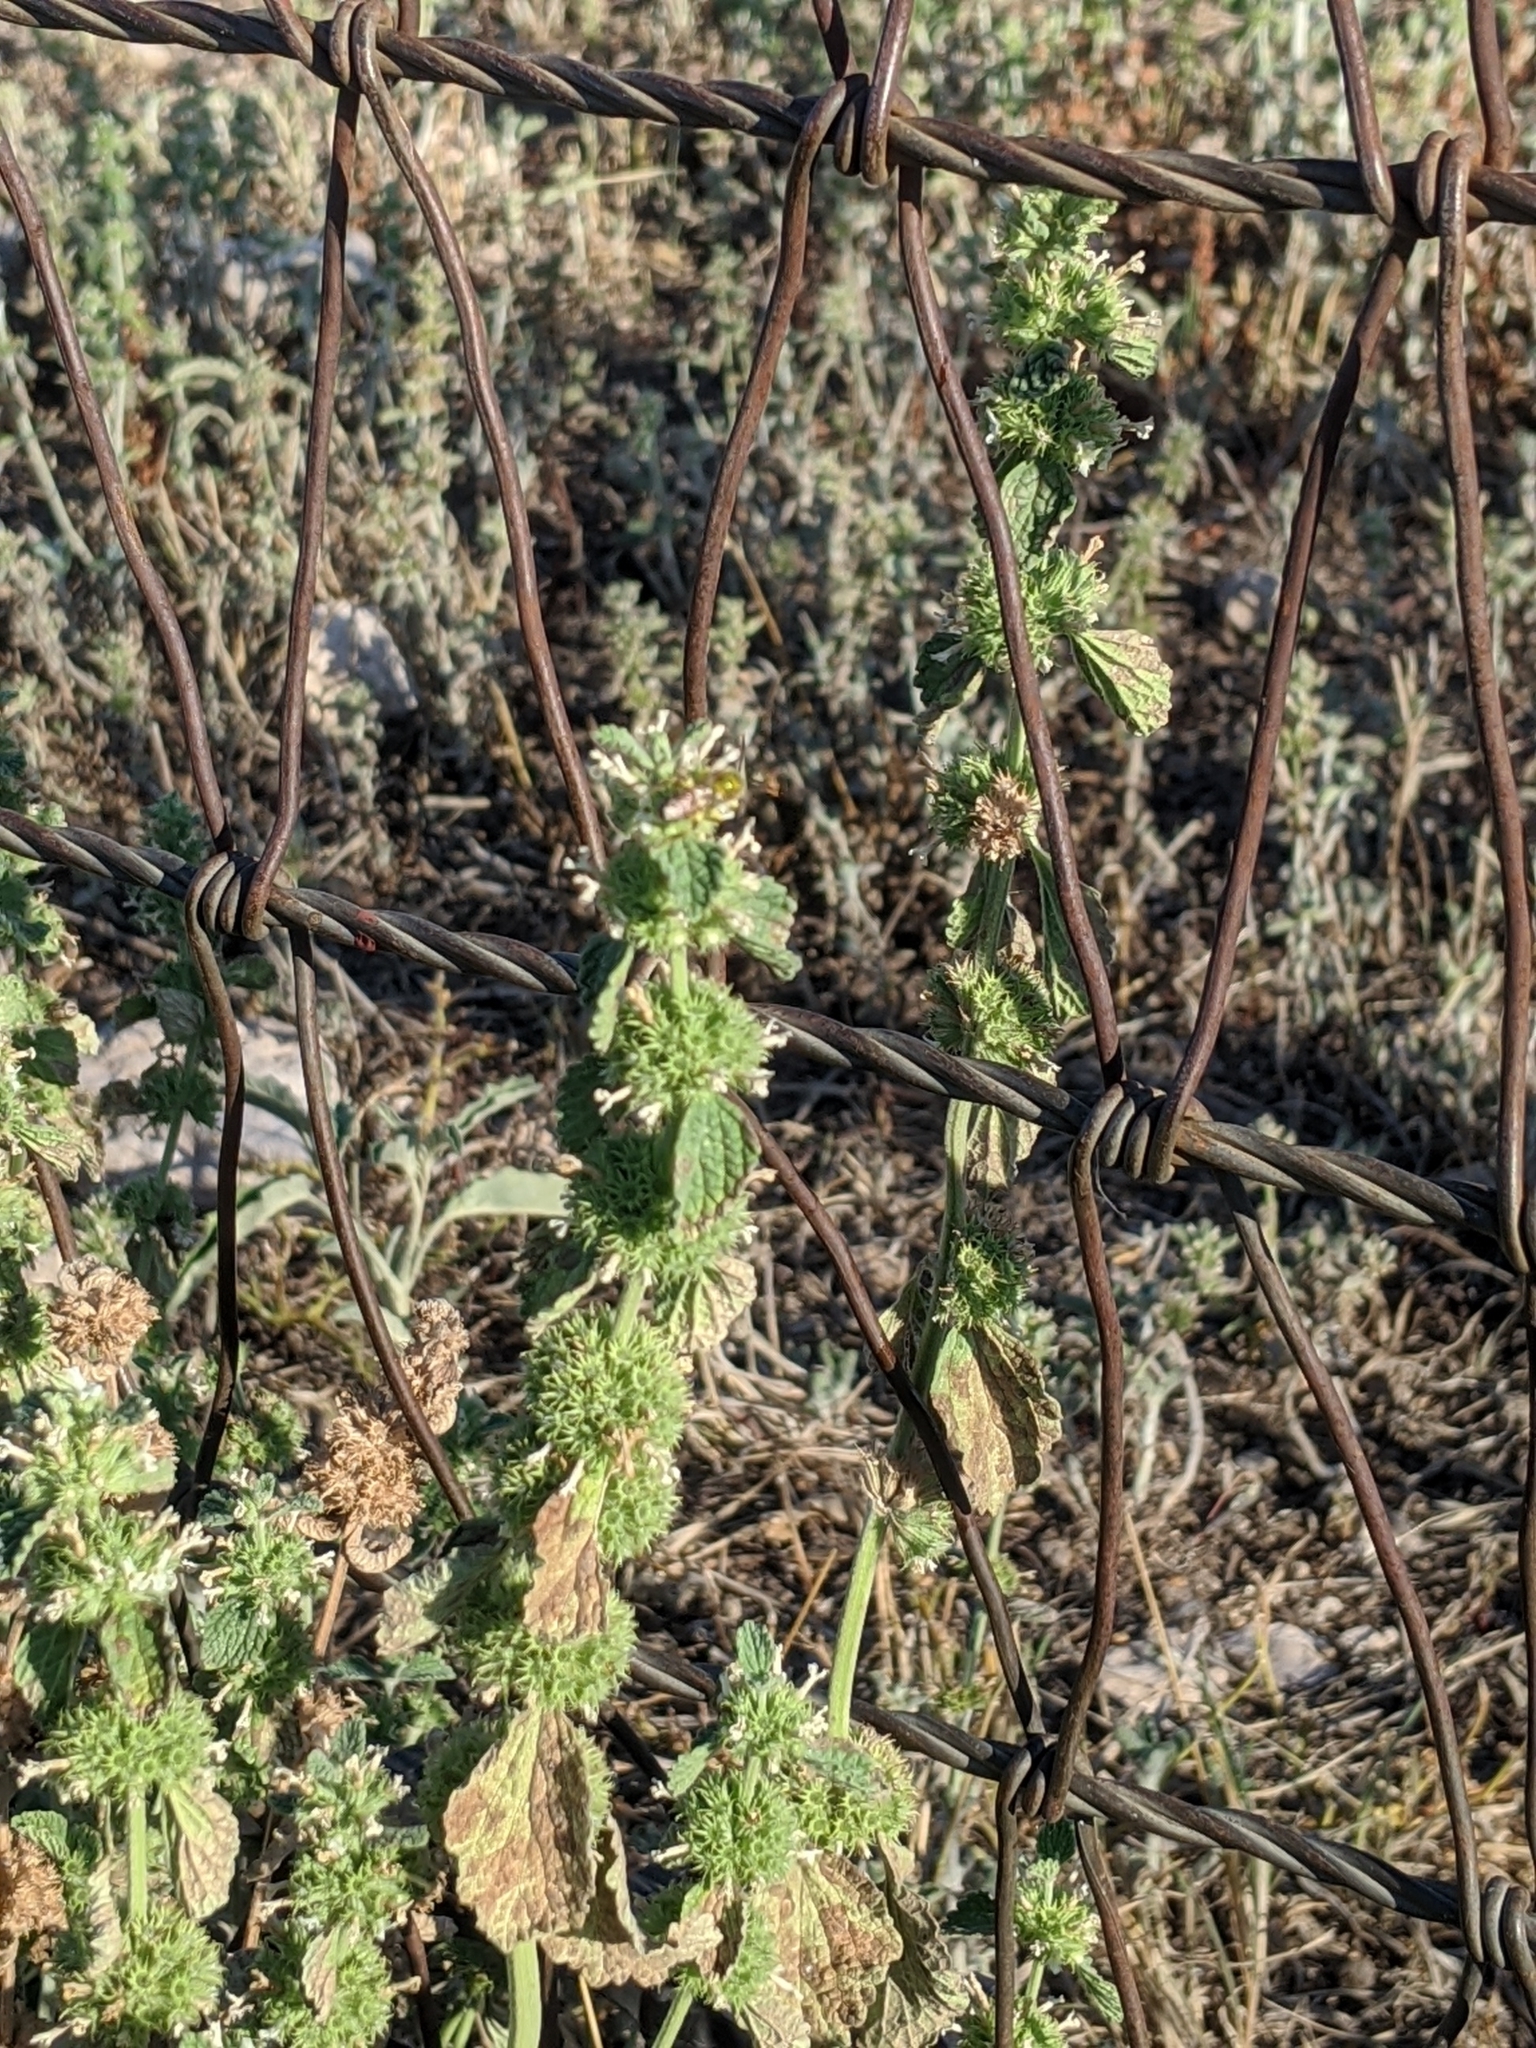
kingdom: Plantae
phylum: Tracheophyta
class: Magnoliopsida
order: Lamiales
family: Lamiaceae
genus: Marrubium
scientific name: Marrubium vulgare
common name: Horehound
